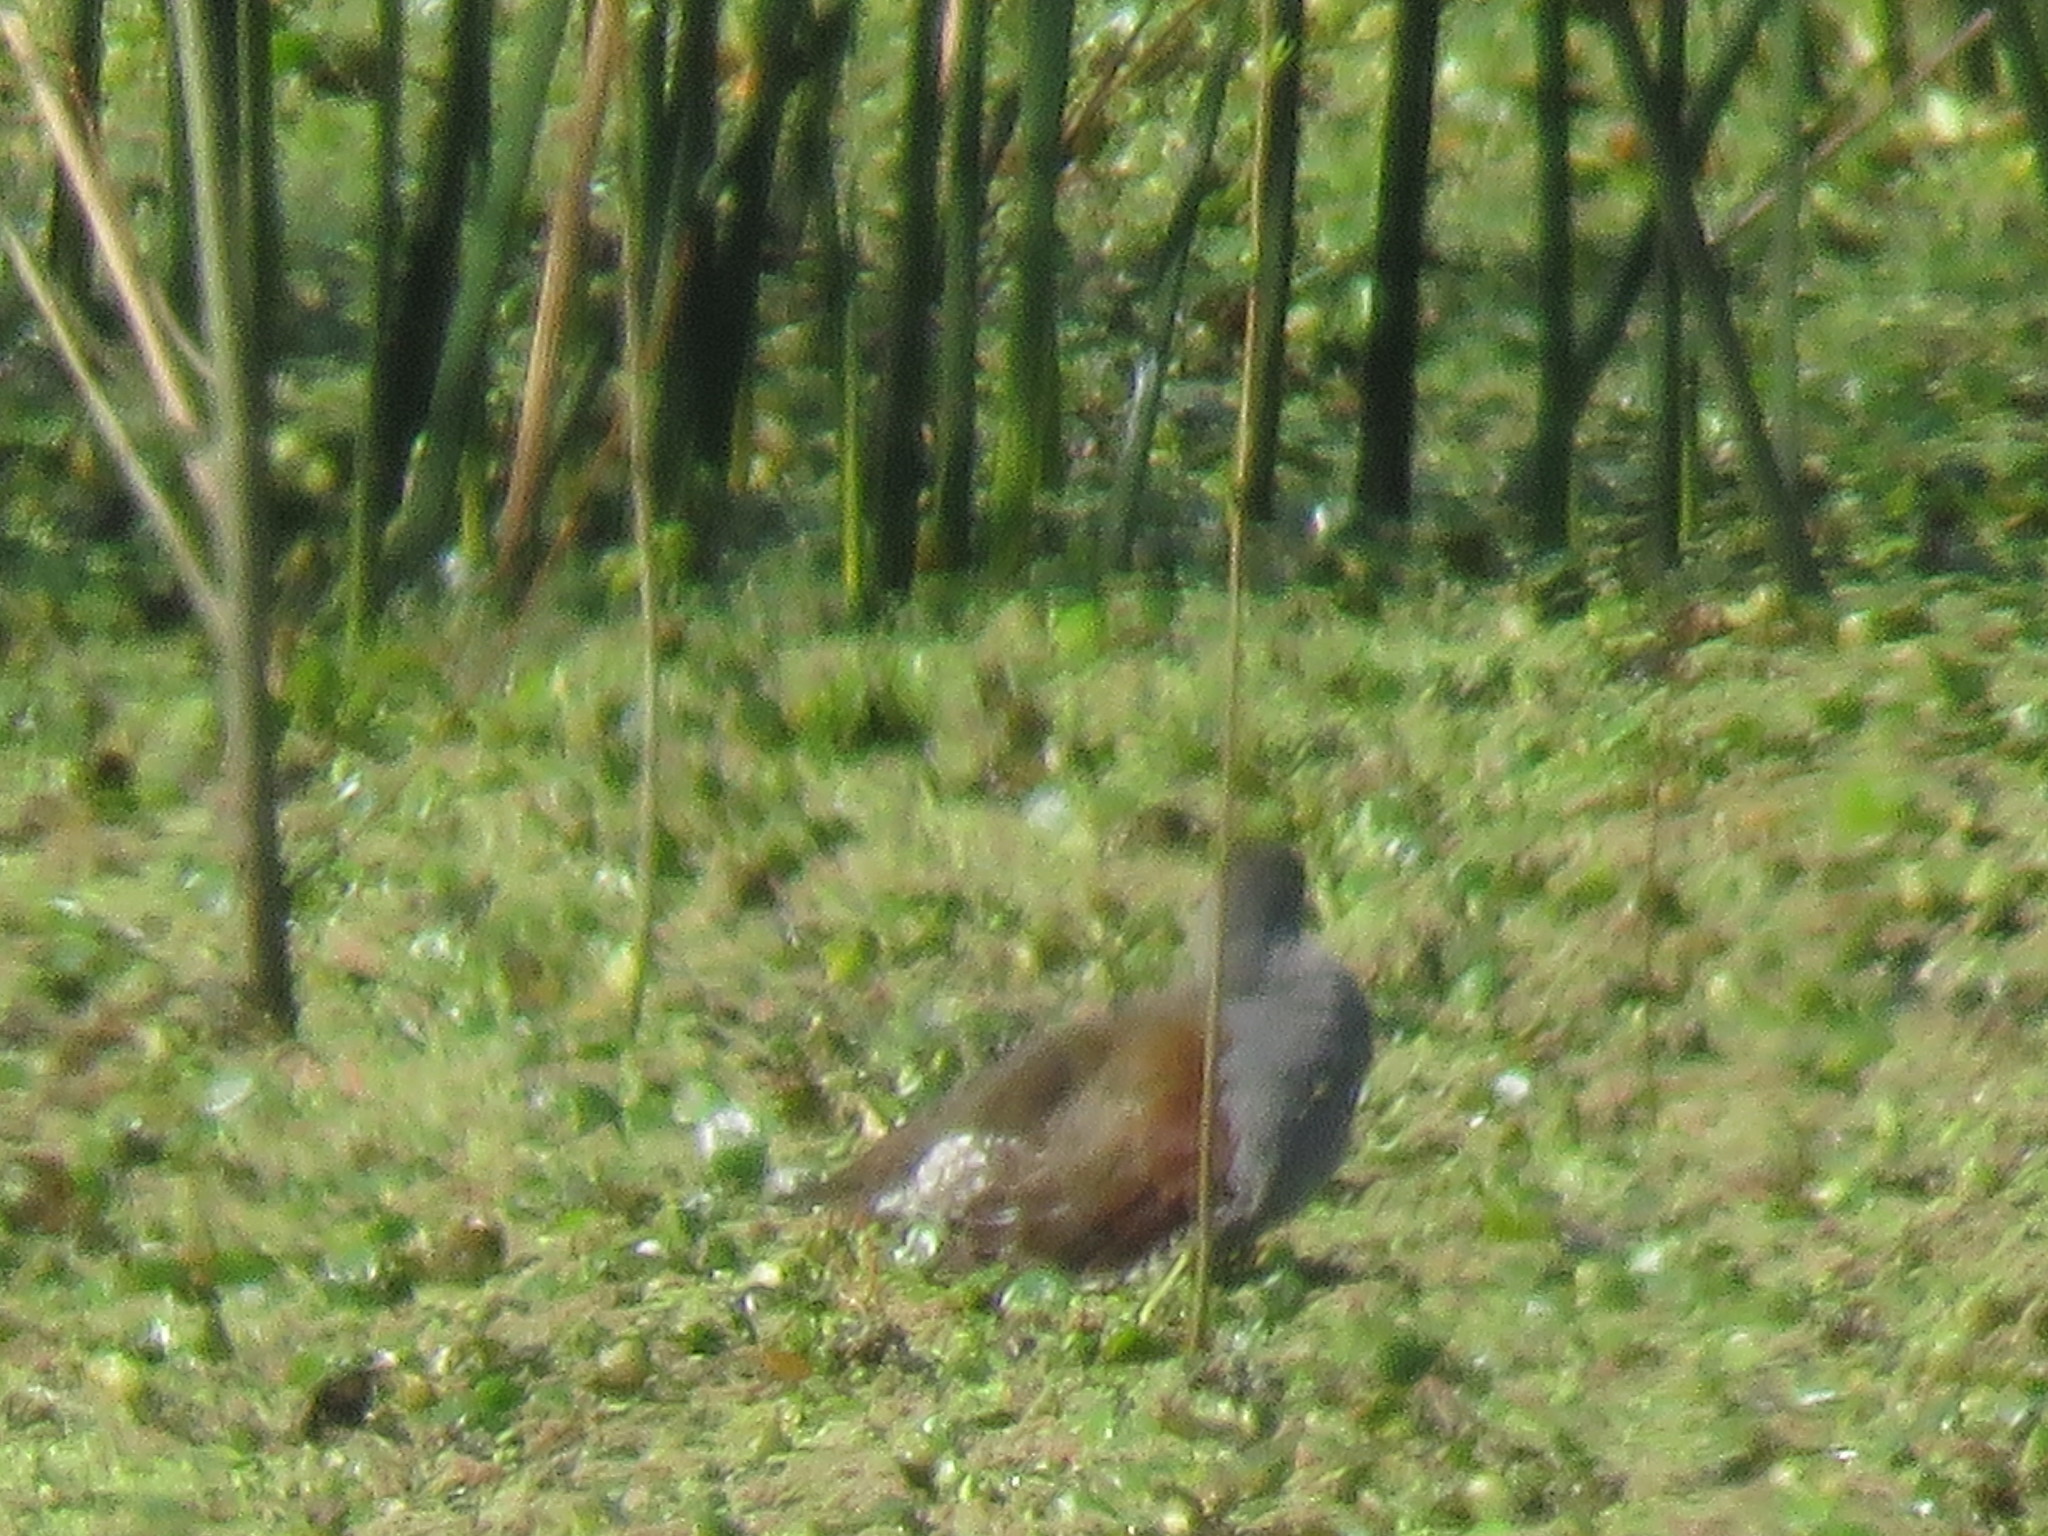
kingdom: Animalia
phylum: Chordata
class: Aves
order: Gruiformes
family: Rallidae
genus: Gallinula
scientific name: Gallinula melanops
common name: Spot-flanked gallinule
